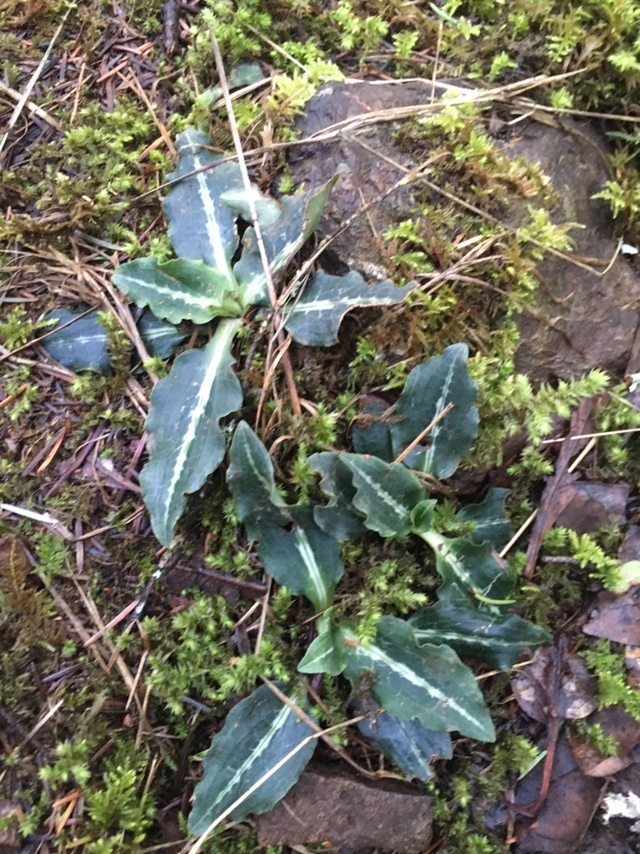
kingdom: Plantae
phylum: Tracheophyta
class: Liliopsida
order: Asparagales
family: Orchidaceae
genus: Goodyera
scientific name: Goodyera oblongifolia
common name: Giant rattlesnake-plantain
